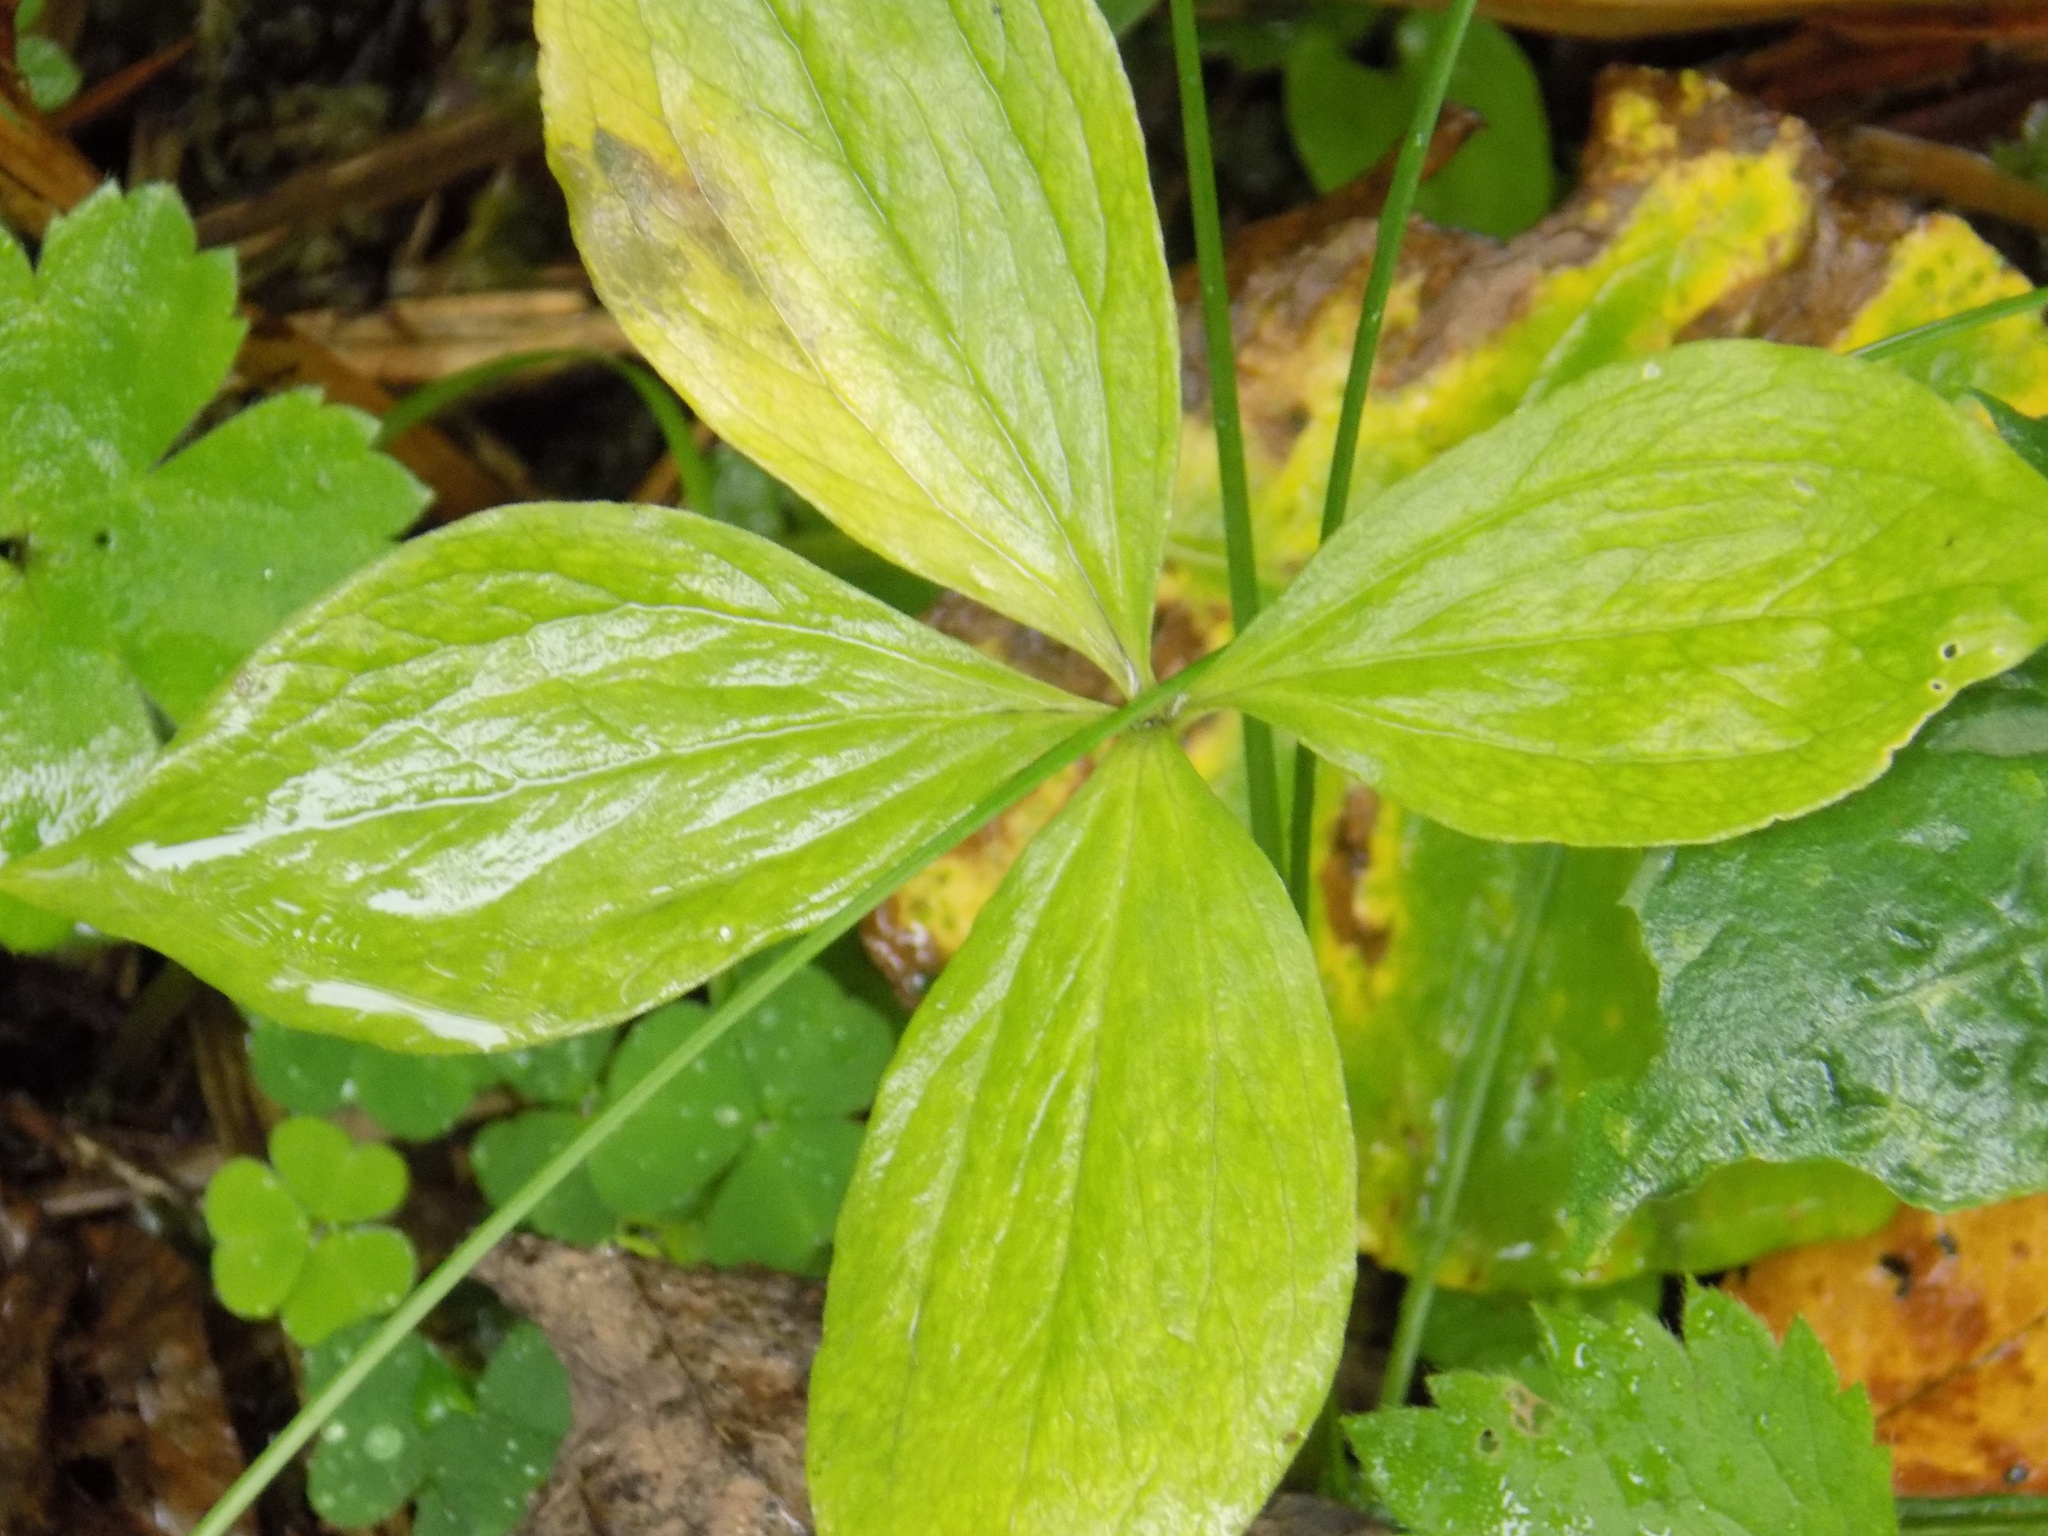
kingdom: Plantae
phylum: Tracheophyta
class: Liliopsida
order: Liliales
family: Melanthiaceae
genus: Paris
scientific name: Paris quadrifolia
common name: Herb-paris
